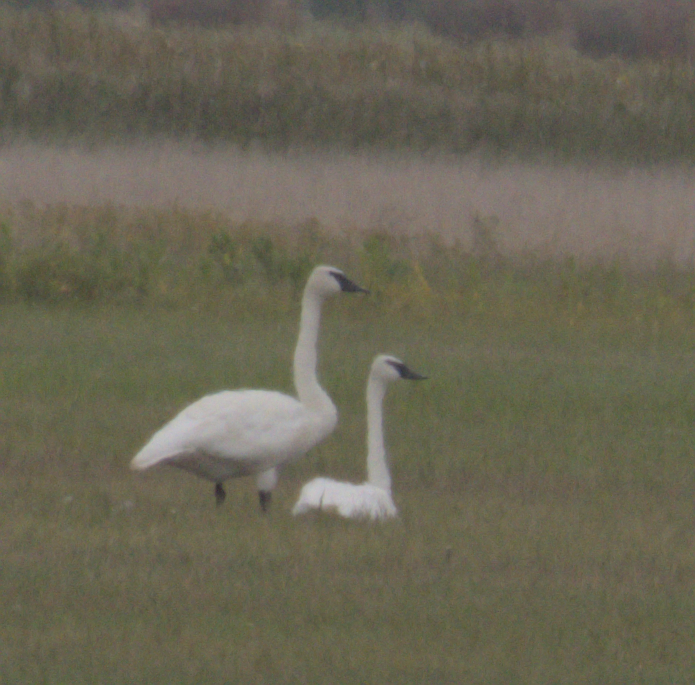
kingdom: Animalia
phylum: Chordata
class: Aves
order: Anseriformes
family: Anatidae
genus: Cygnus
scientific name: Cygnus buccinator
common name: Trumpeter swan
